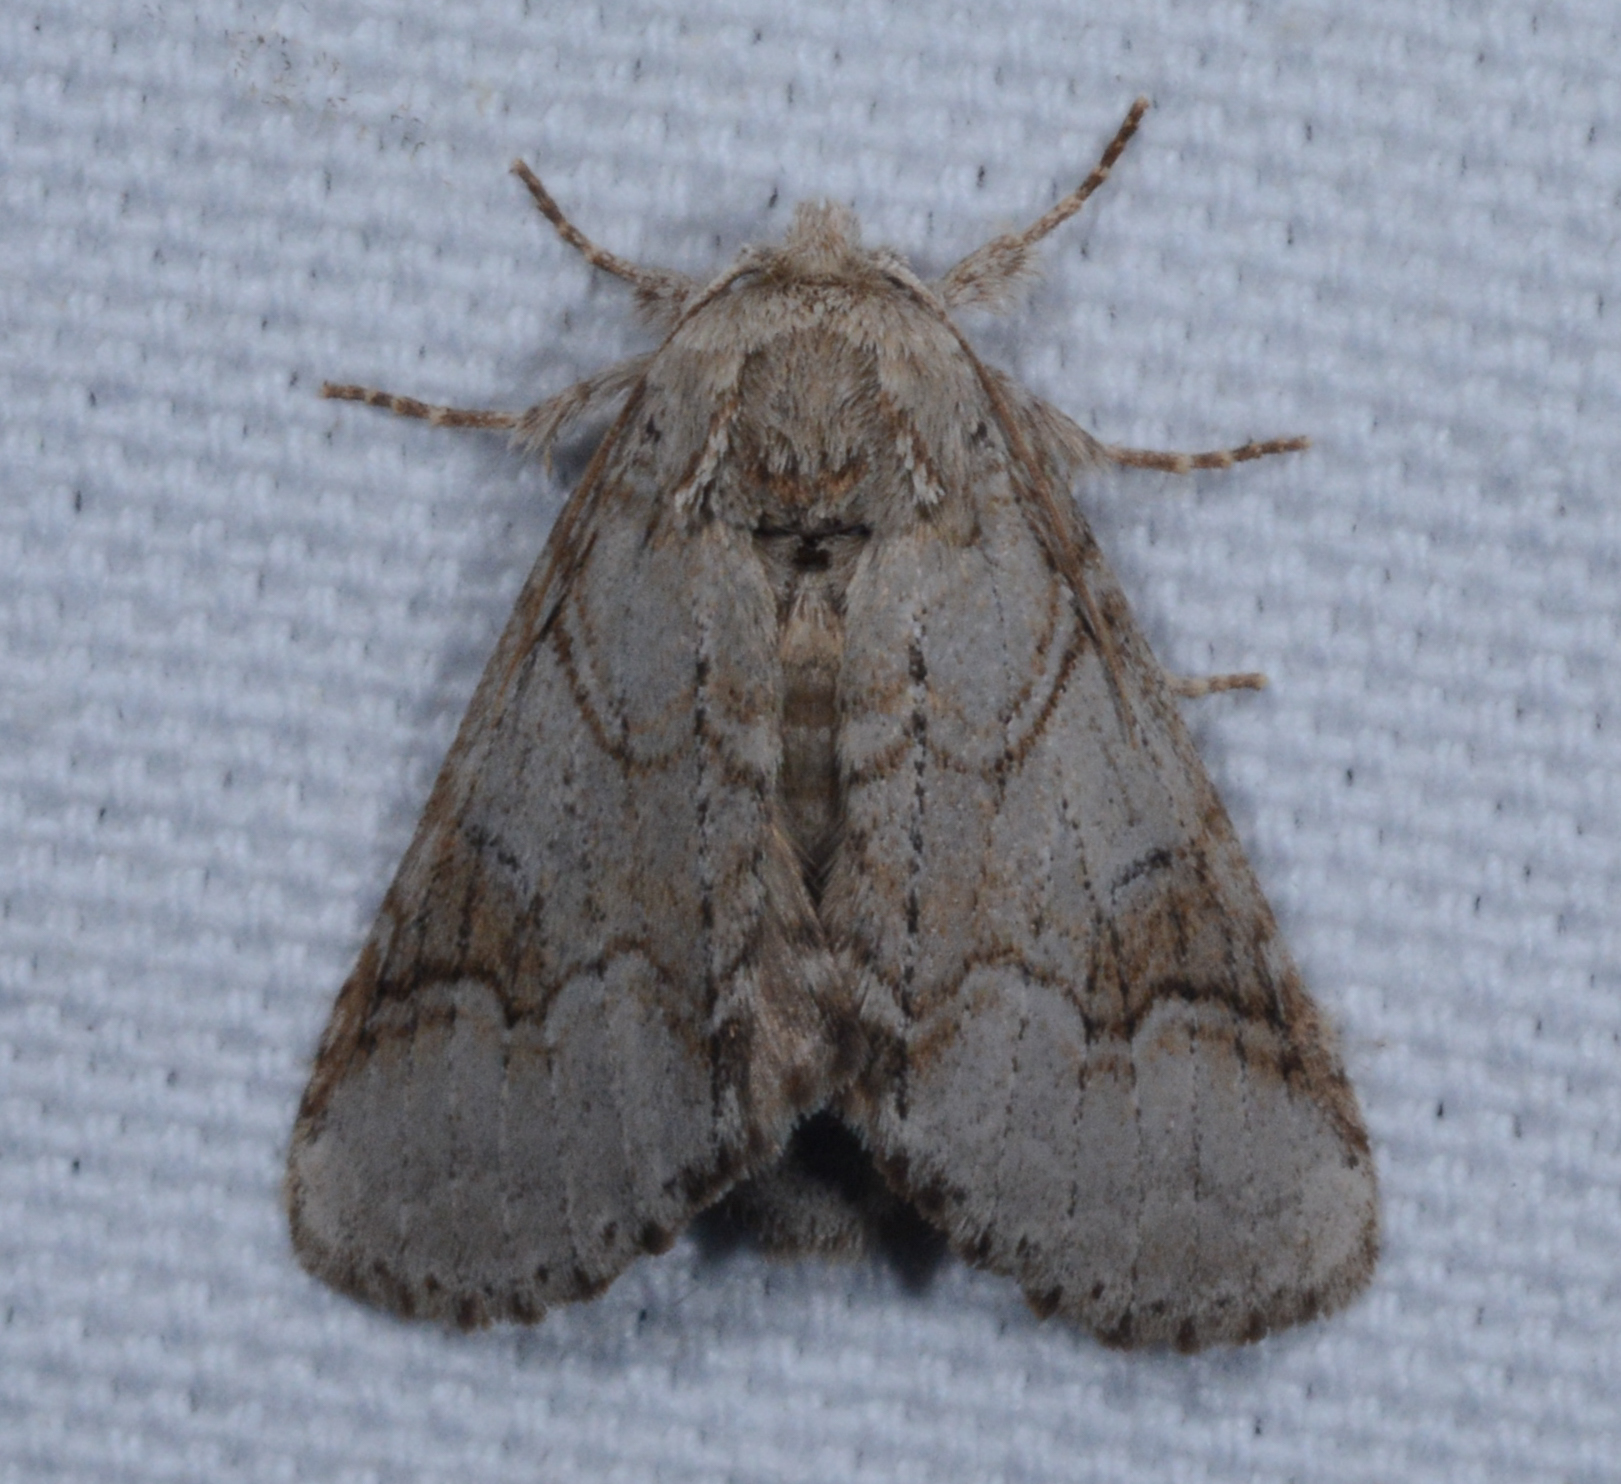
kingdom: Animalia
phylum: Arthropoda
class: Insecta
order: Lepidoptera
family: Notodontidae
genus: Lochmaeus
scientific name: Lochmaeus bilineata
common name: Double-lined prominent
